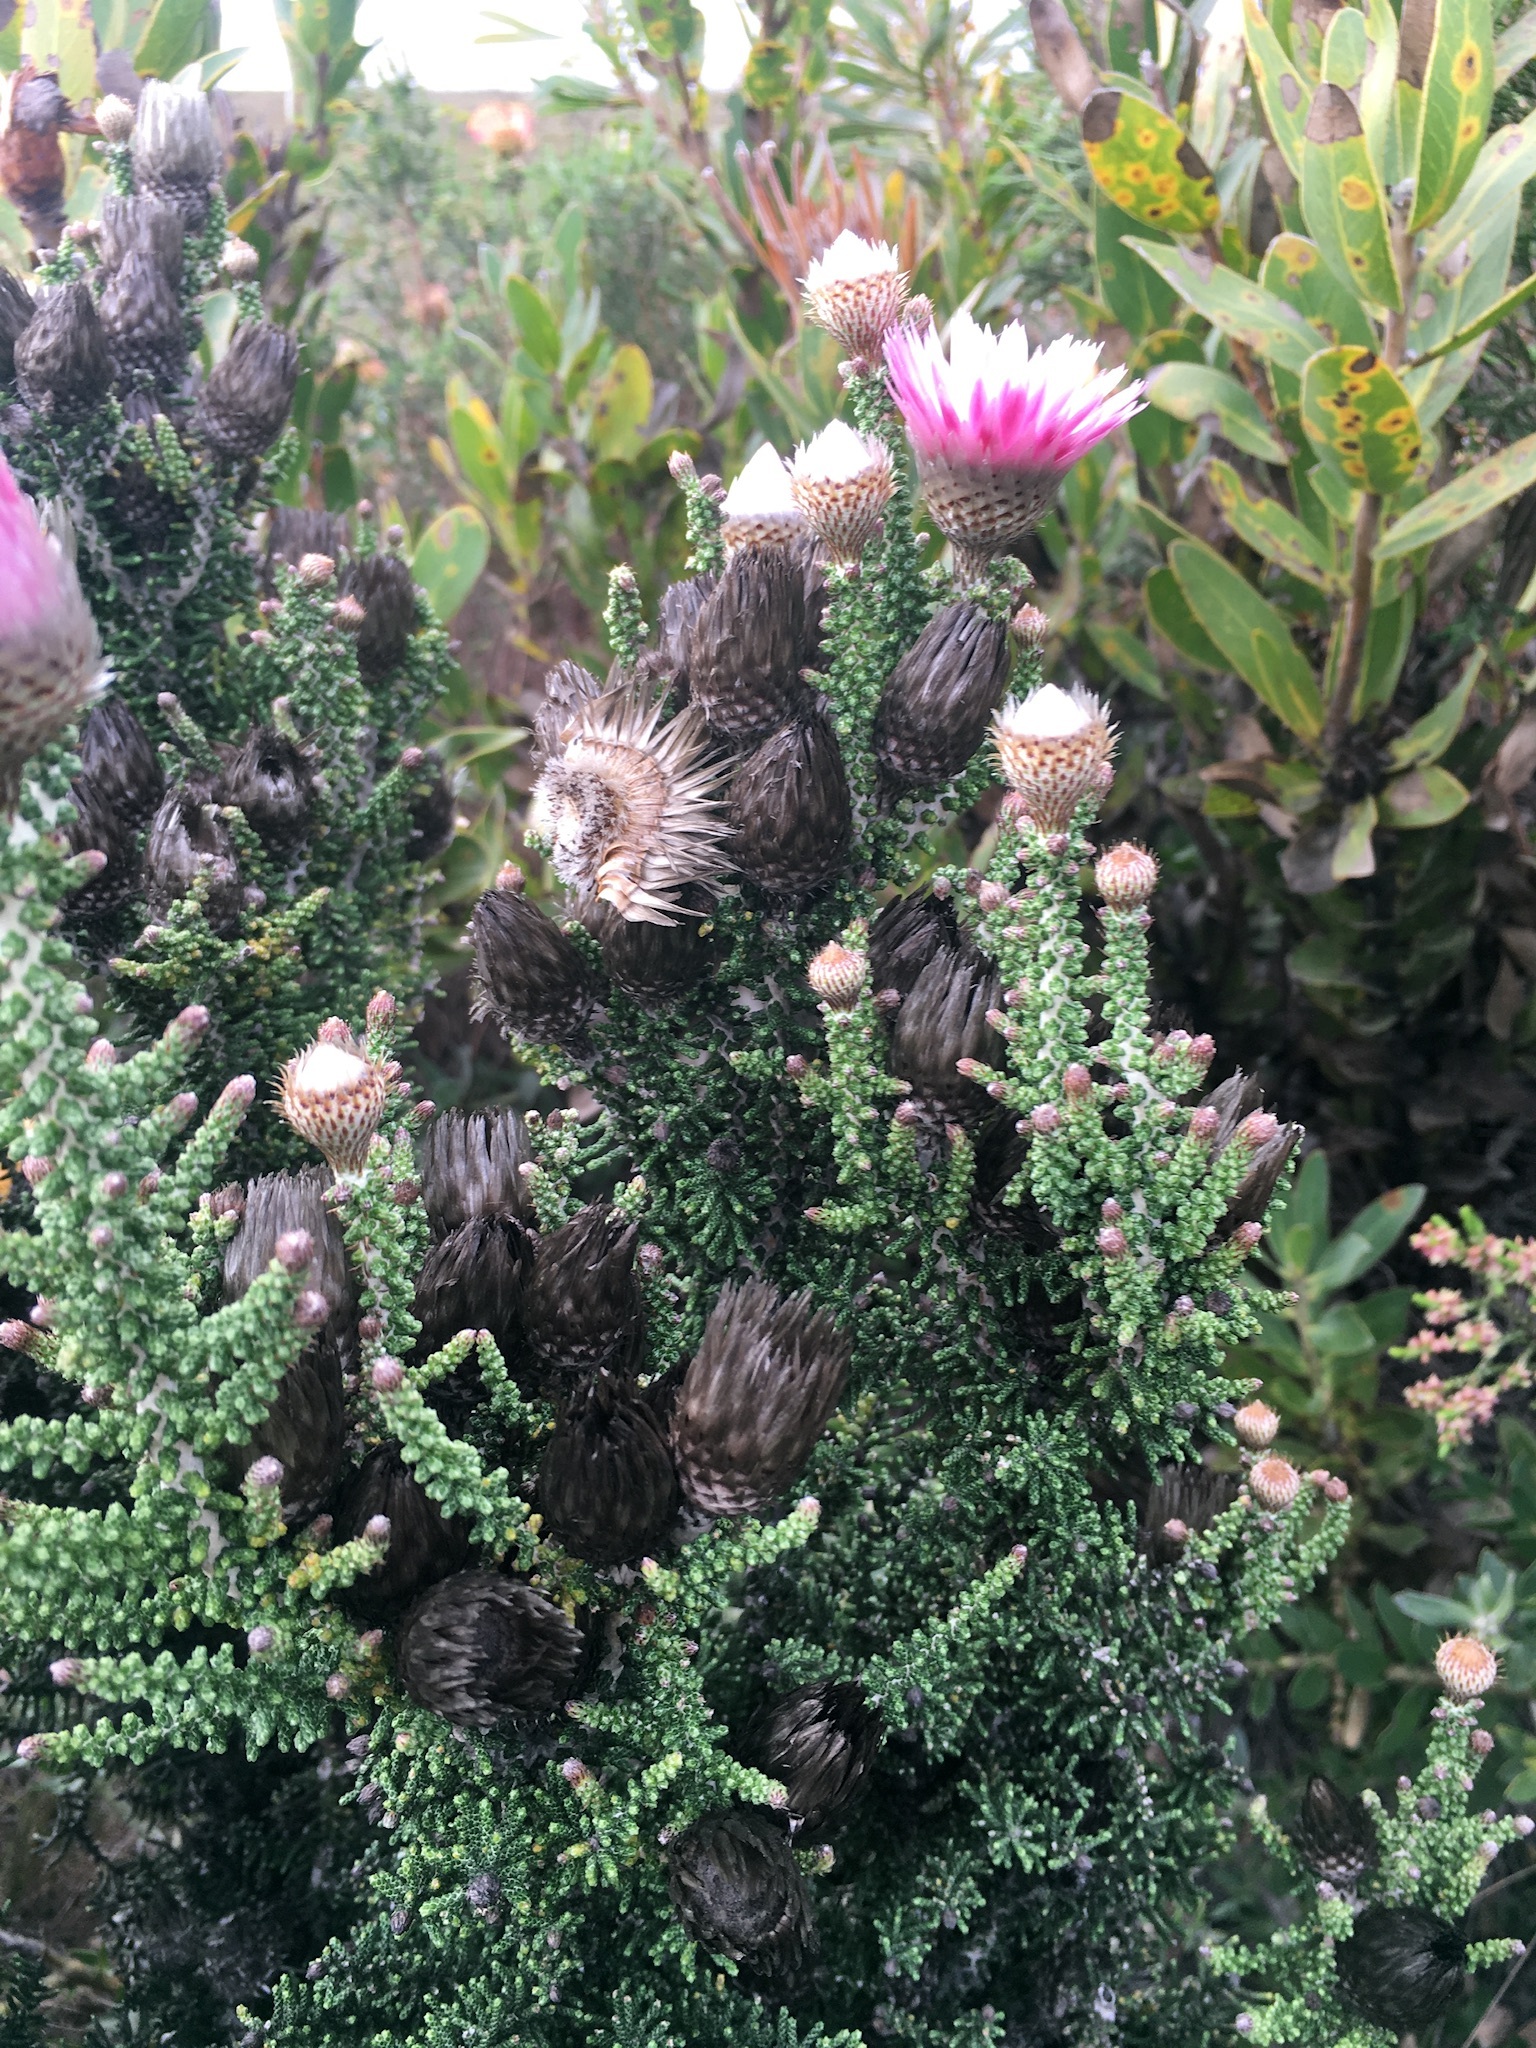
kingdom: Plantae
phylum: Tracheophyta
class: Magnoliopsida
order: Asterales
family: Asteraceae
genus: Phaenocoma
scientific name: Phaenocoma prolifera
